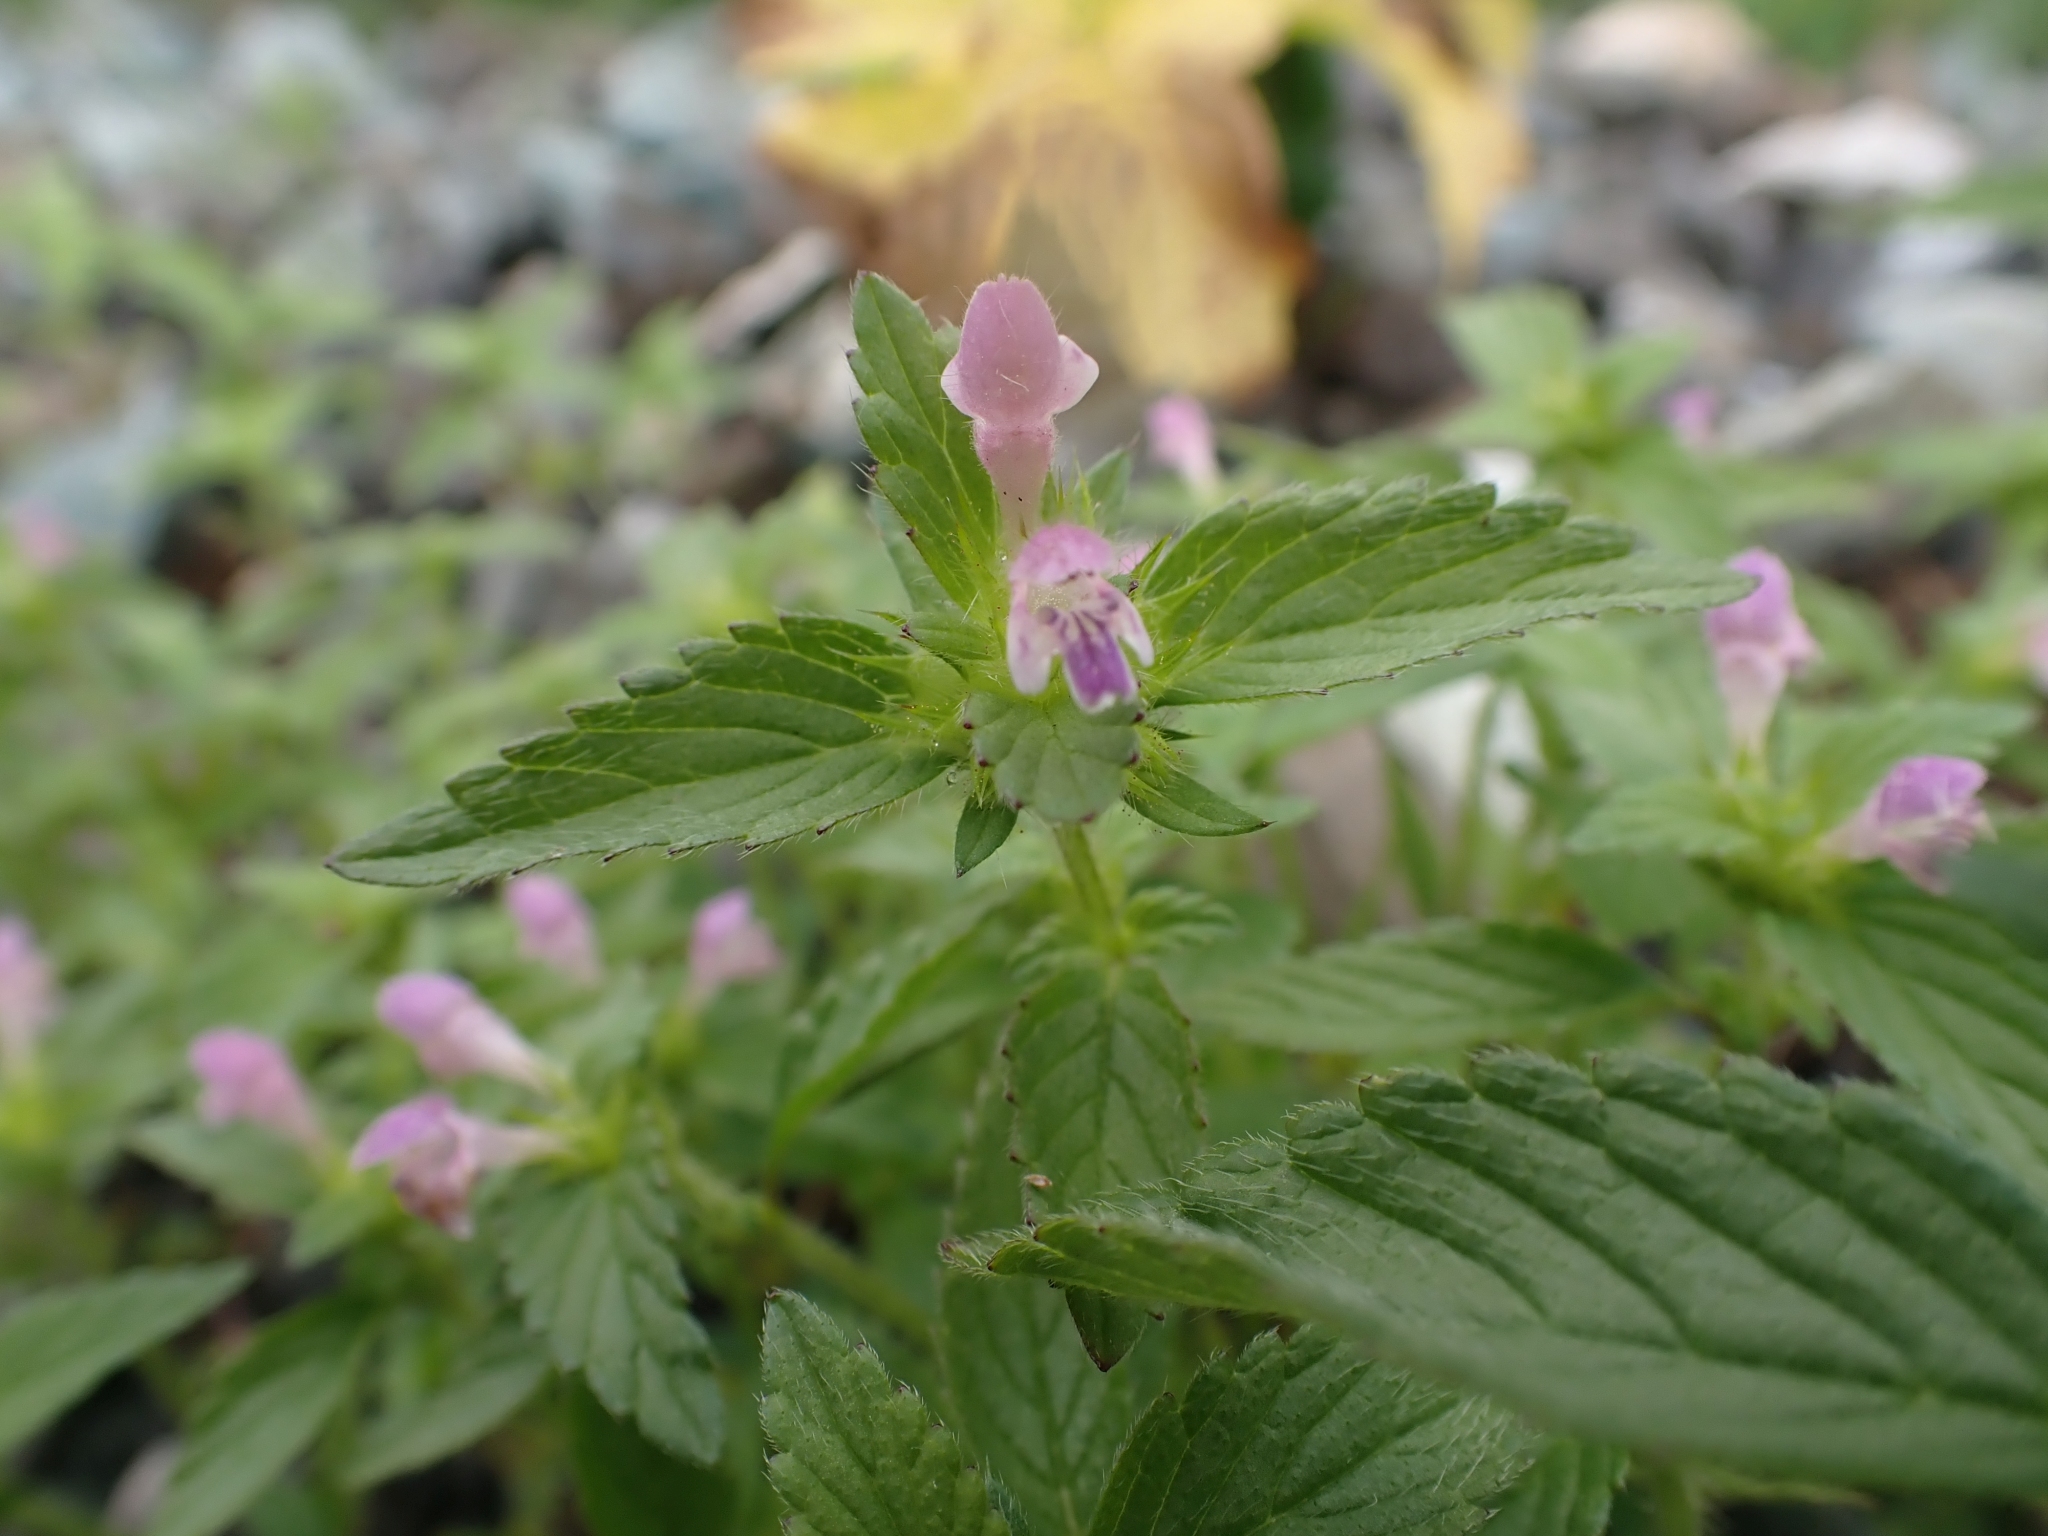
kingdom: Plantae
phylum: Tracheophyta
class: Magnoliopsida
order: Lamiales
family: Lamiaceae
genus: Galeopsis
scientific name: Galeopsis bifida
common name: Bifid hemp-nettle
